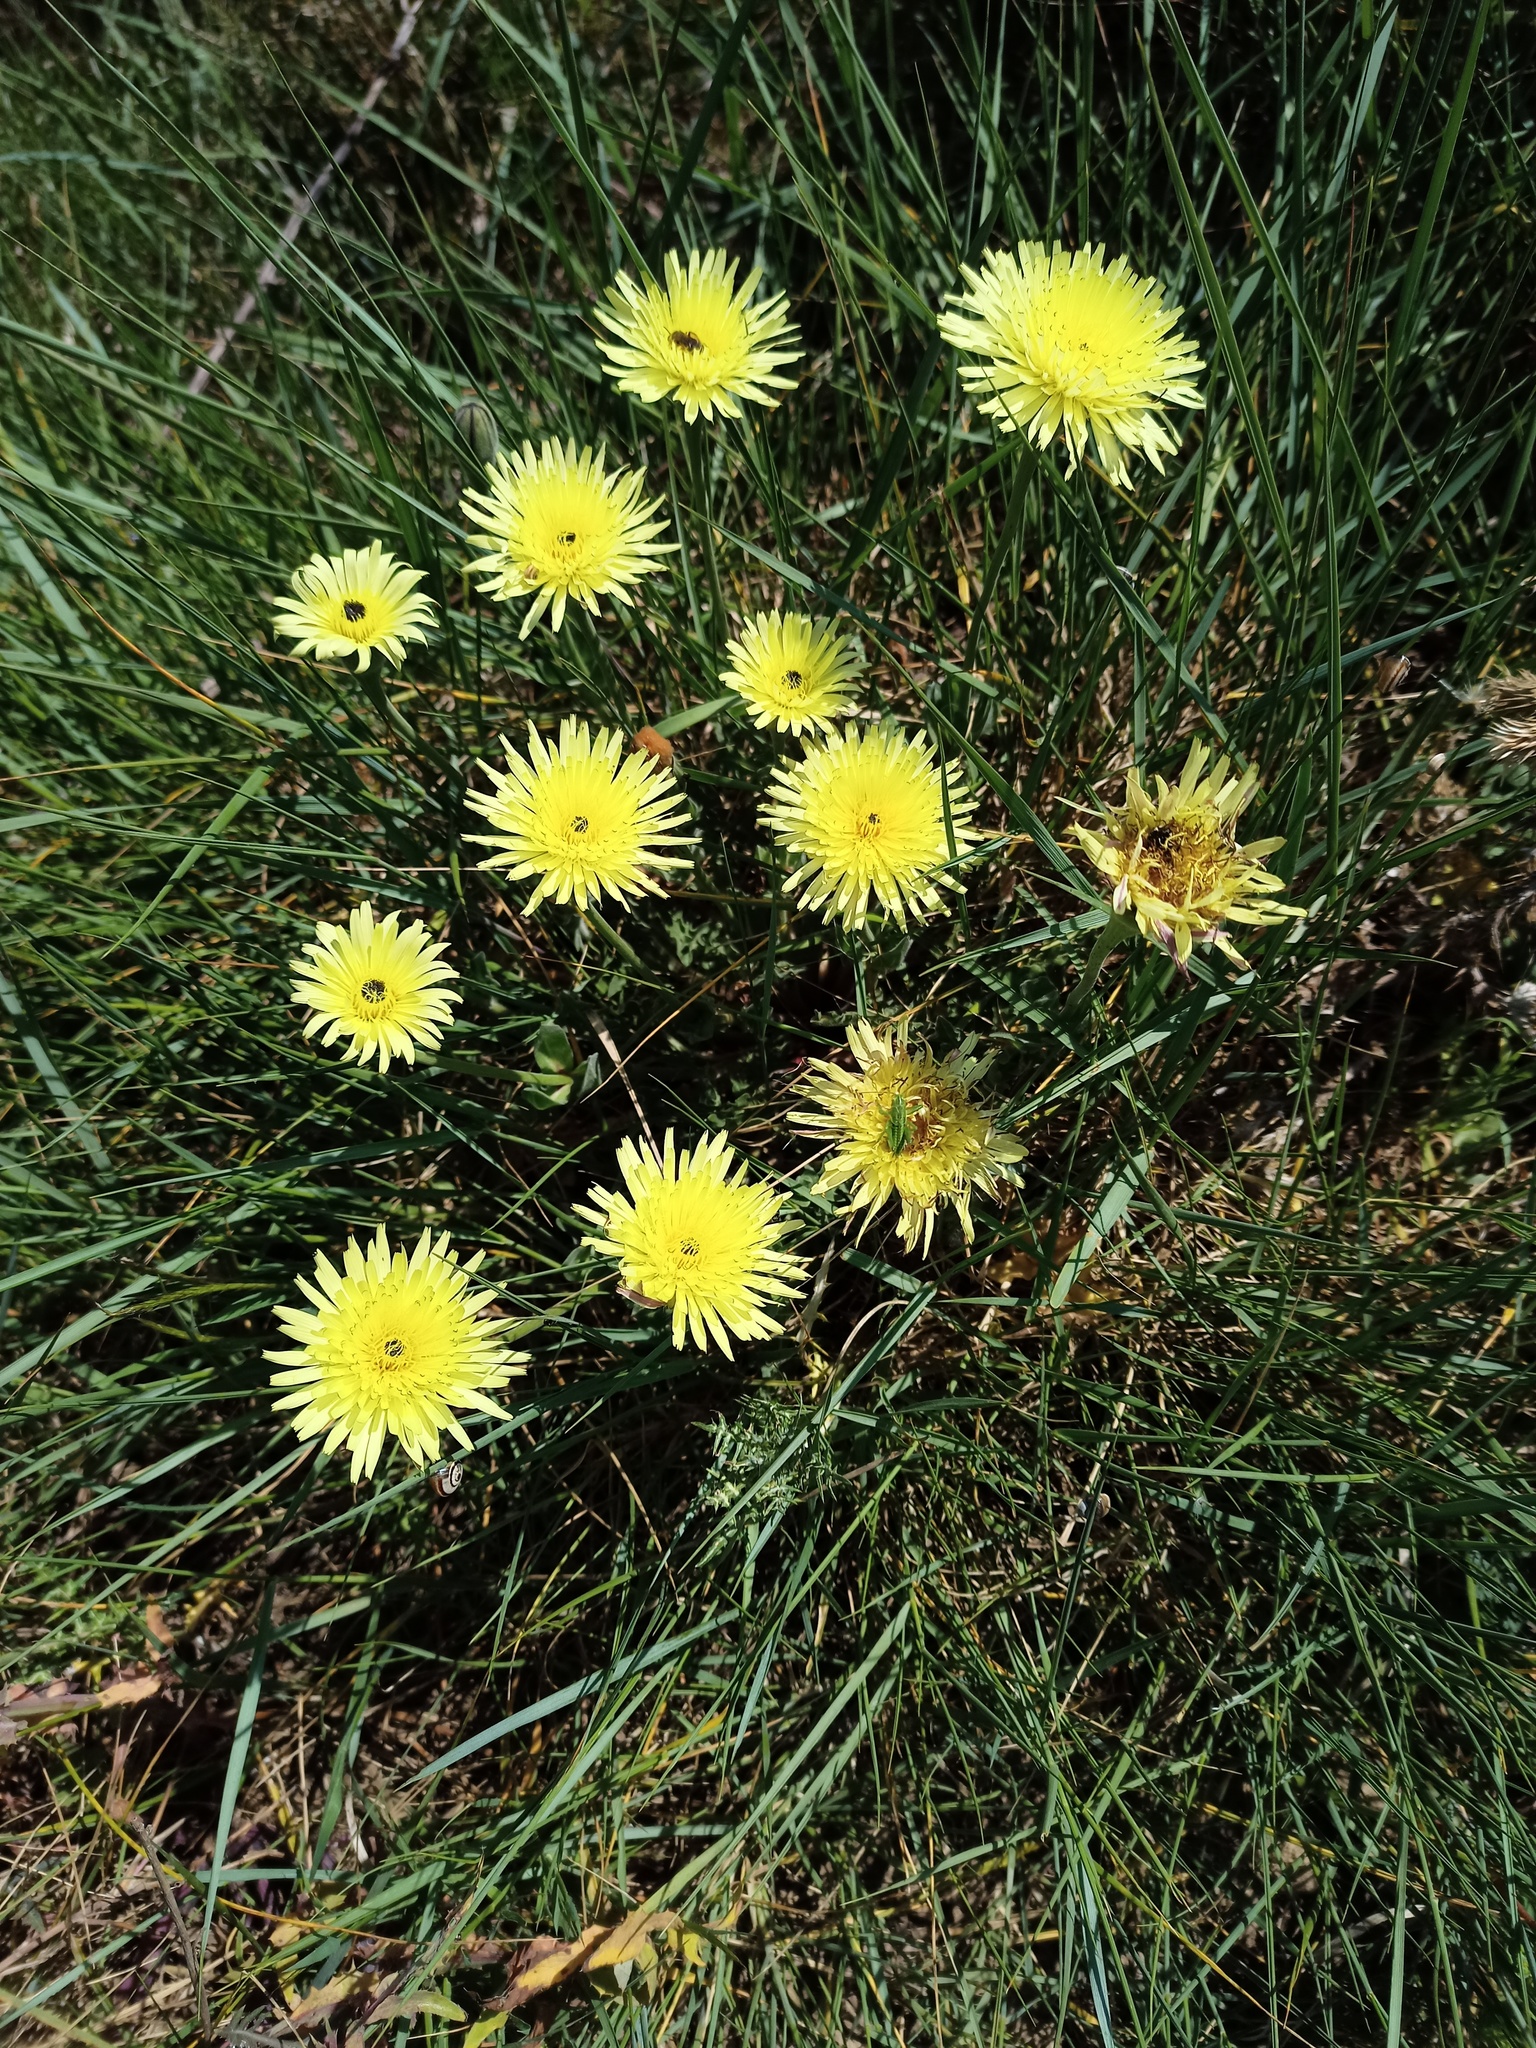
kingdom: Plantae
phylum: Tracheophyta
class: Magnoliopsida
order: Asterales
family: Asteraceae
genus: Urospermum
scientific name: Urospermum dalechampii
